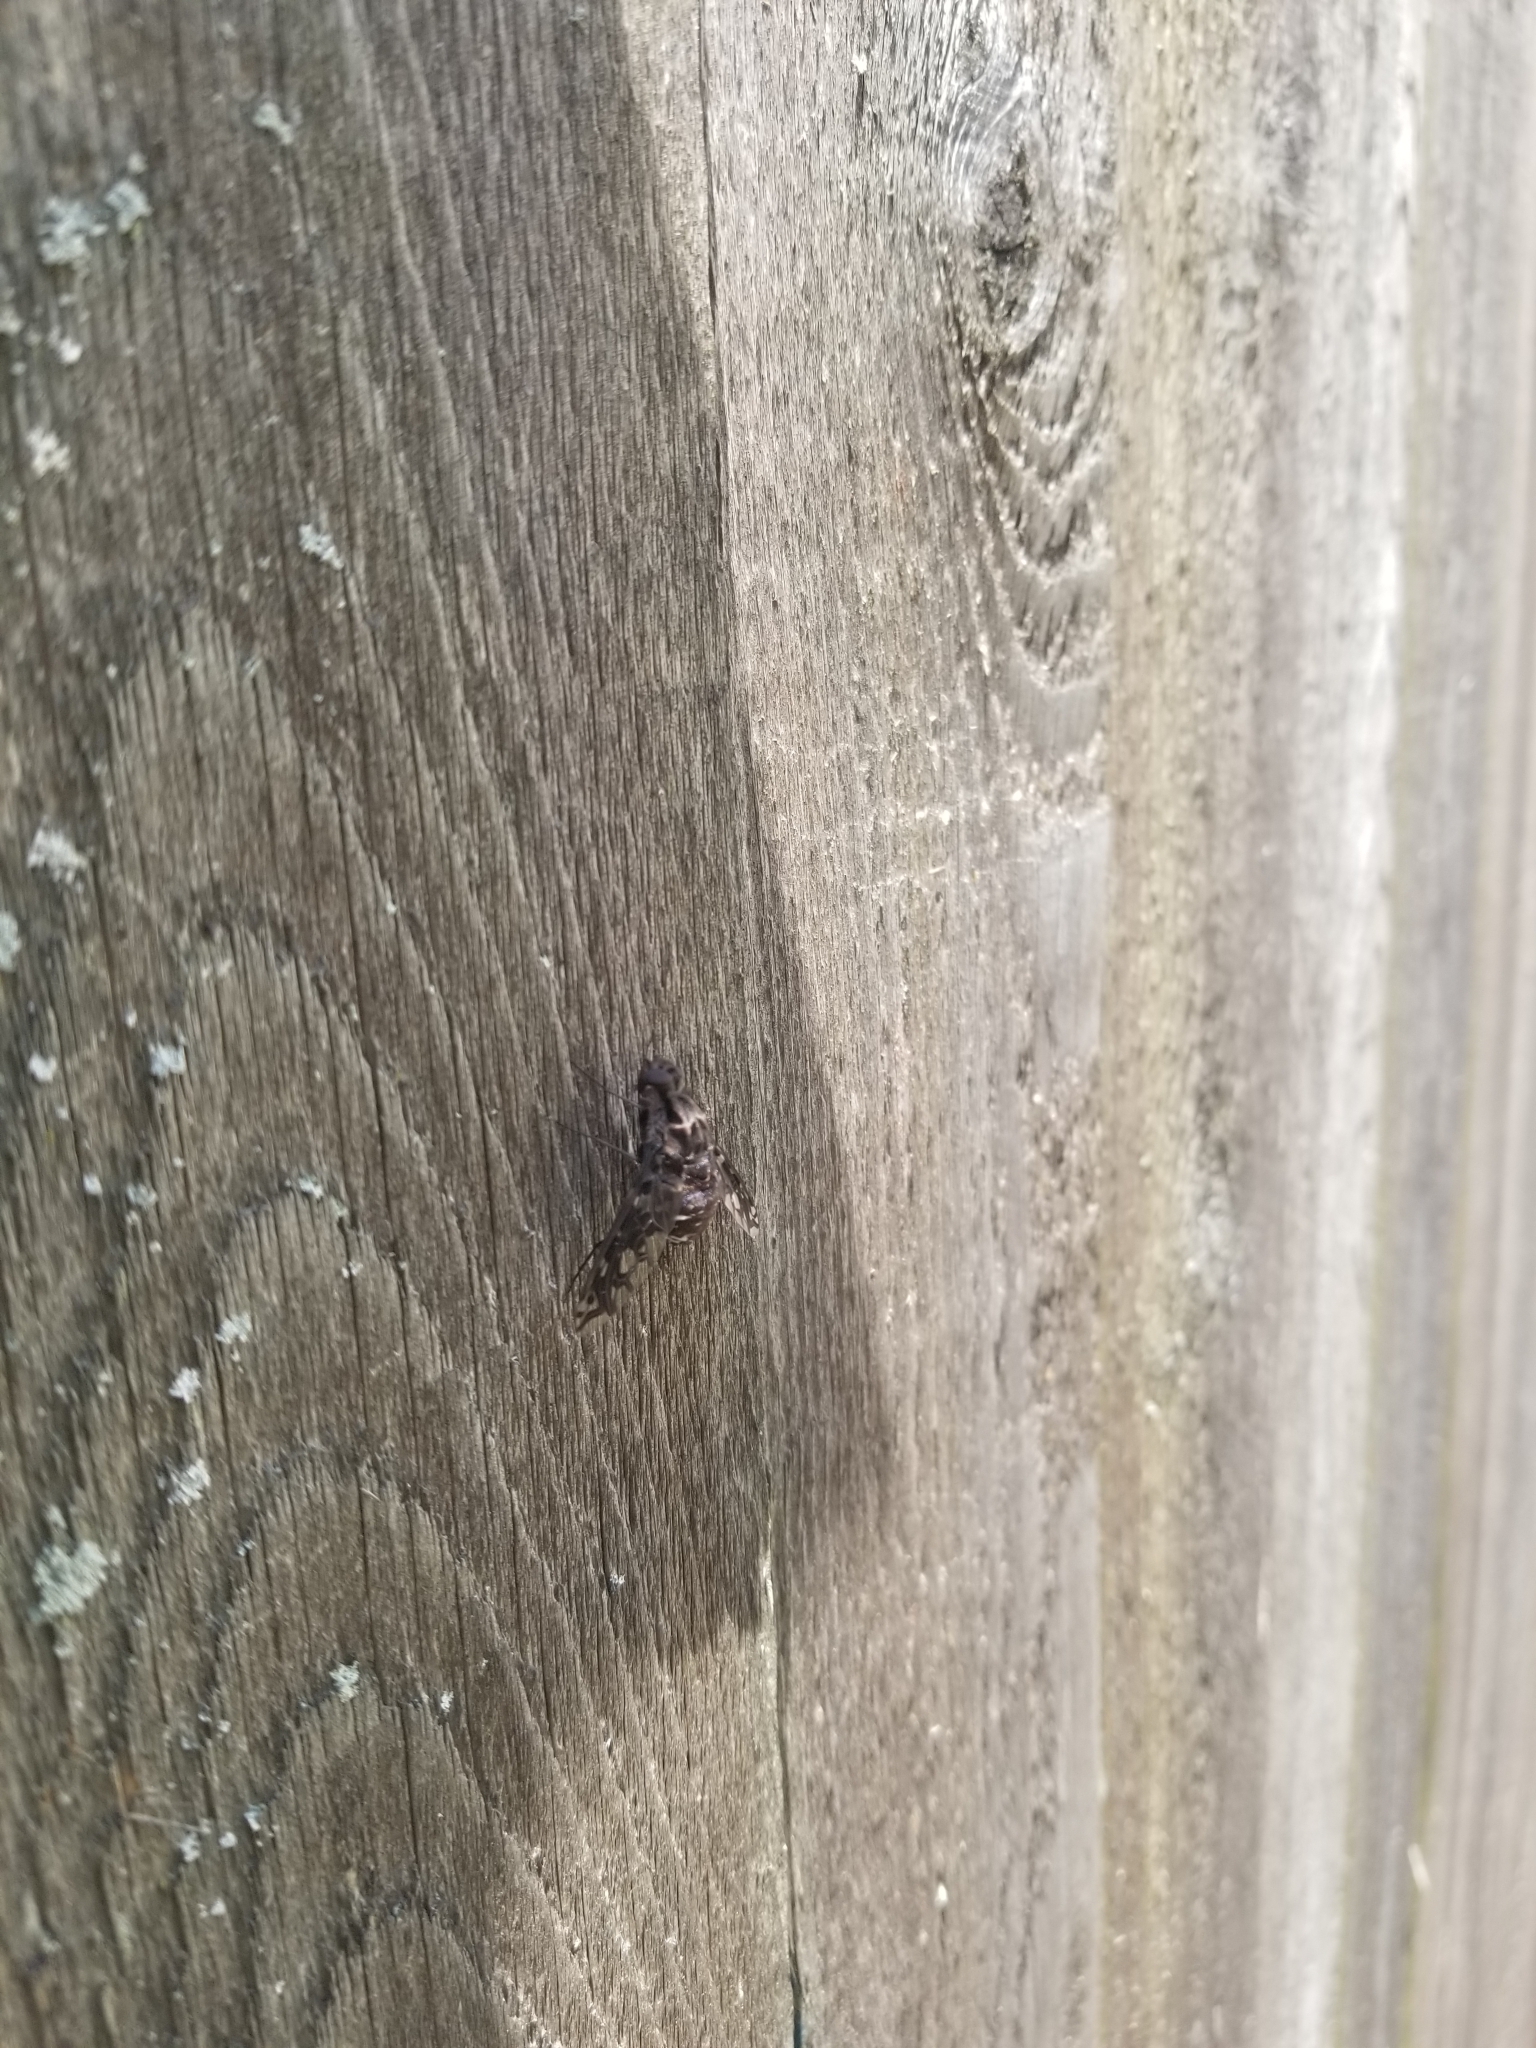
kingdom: Animalia
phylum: Arthropoda
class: Insecta
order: Diptera
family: Bombyliidae
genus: Xenox
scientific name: Xenox tigrinus
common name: Tiger bee fly
